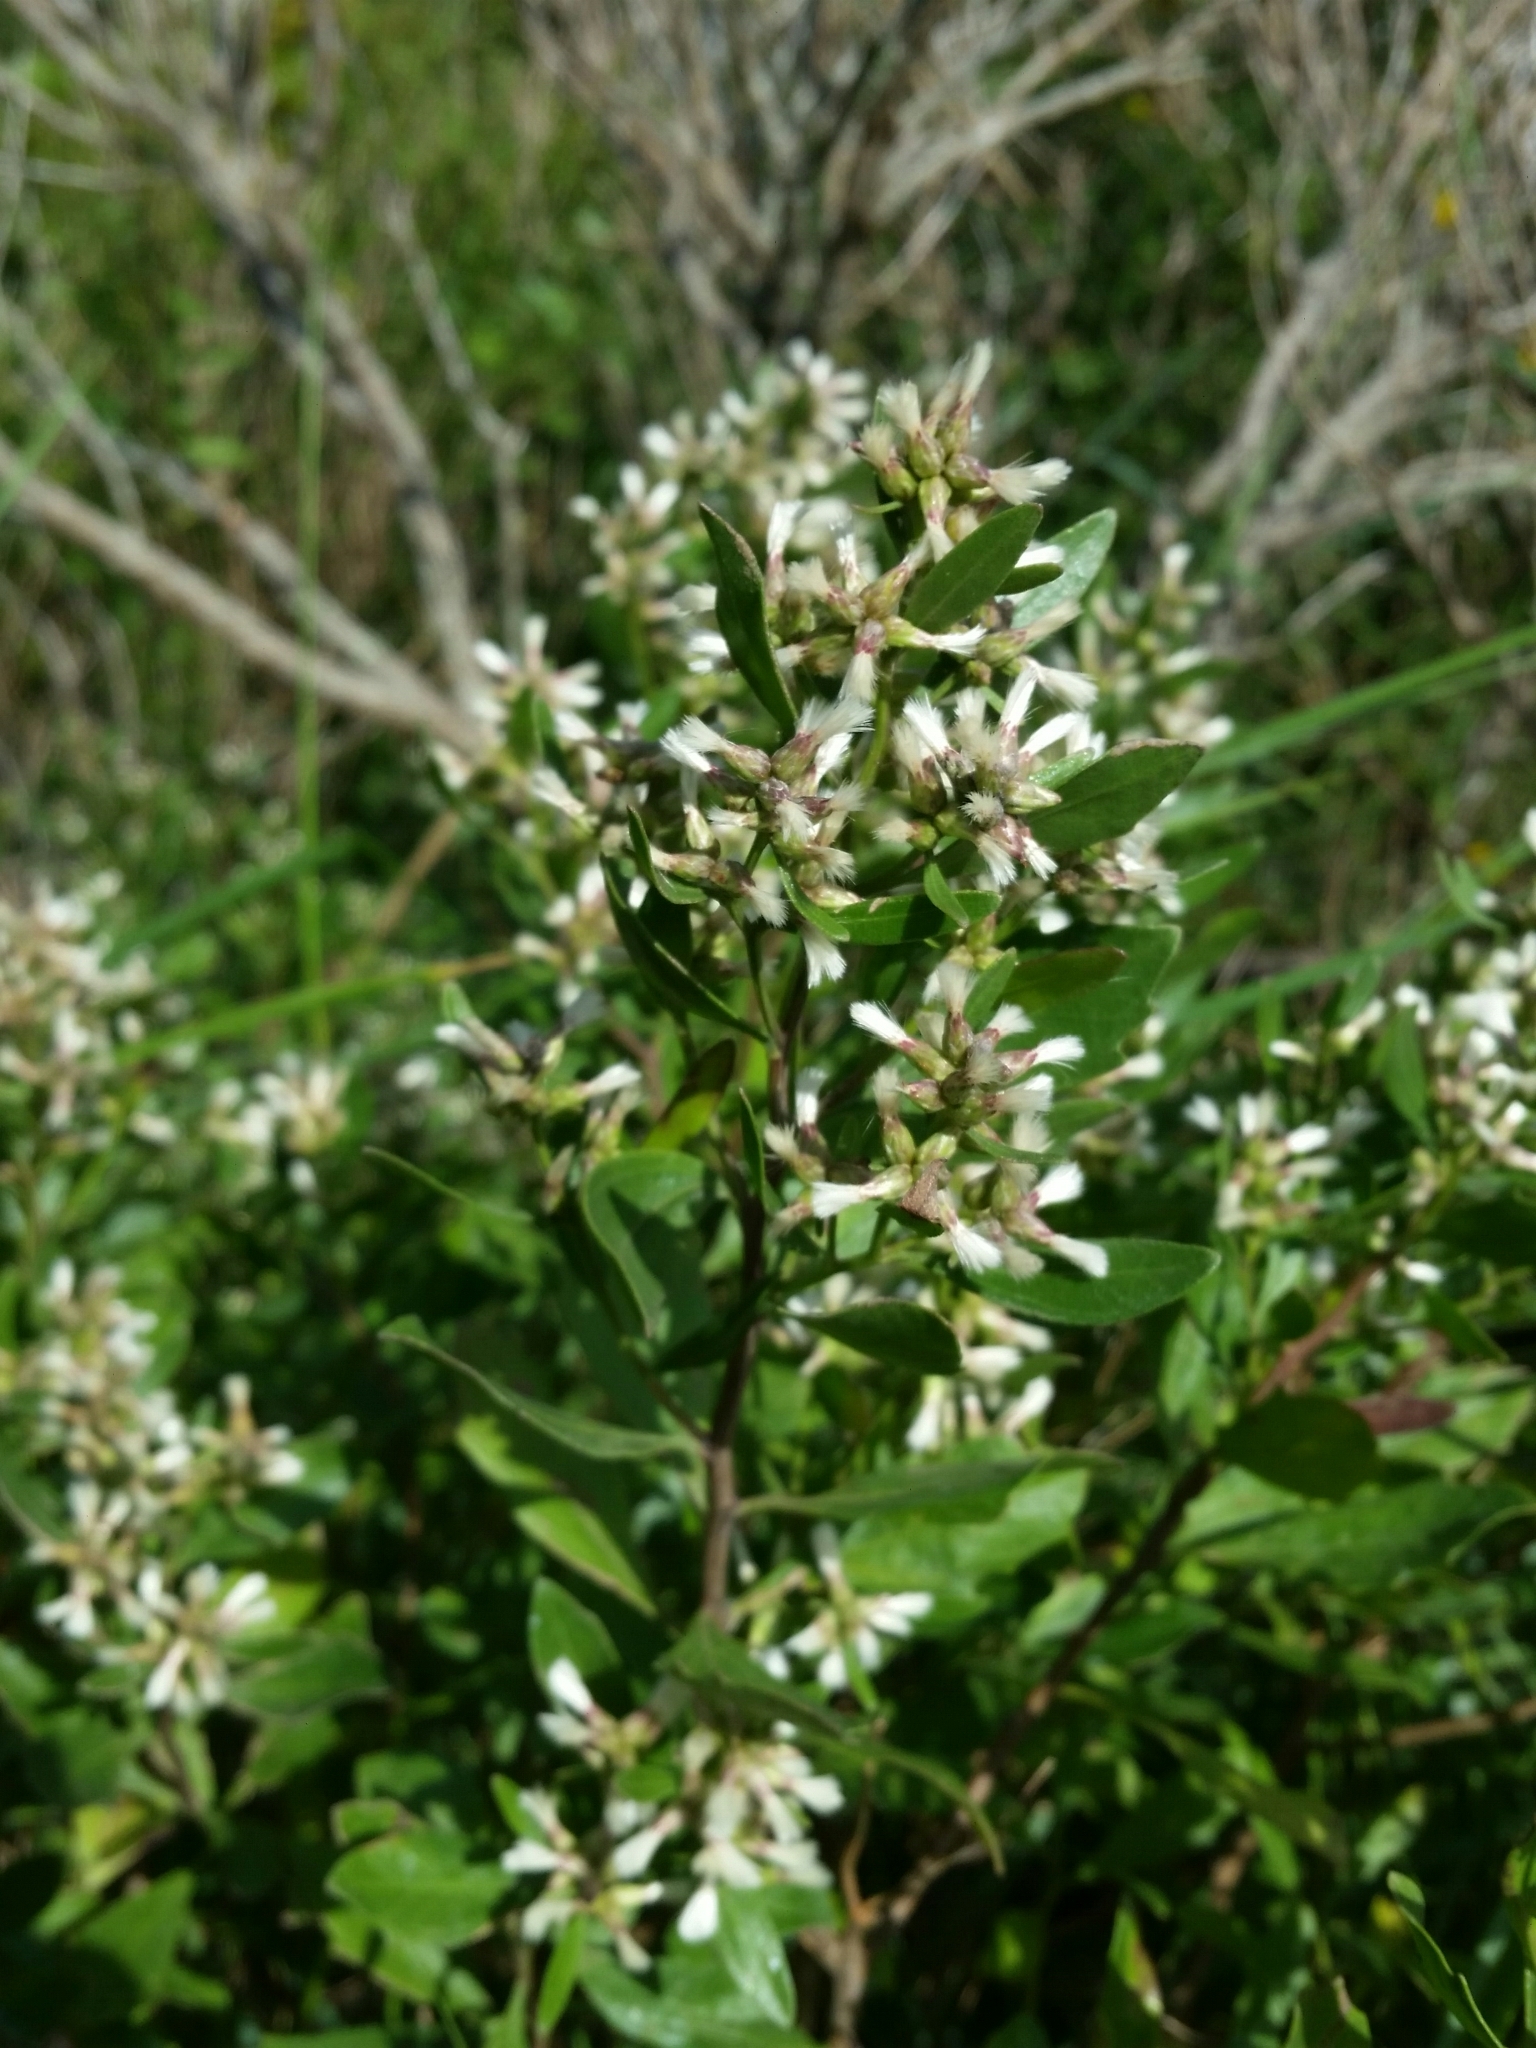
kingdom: Plantae
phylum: Tracheophyta
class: Magnoliopsida
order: Asterales
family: Asteraceae
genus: Baccharis
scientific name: Baccharis halimifolia
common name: Eastern baccharis
